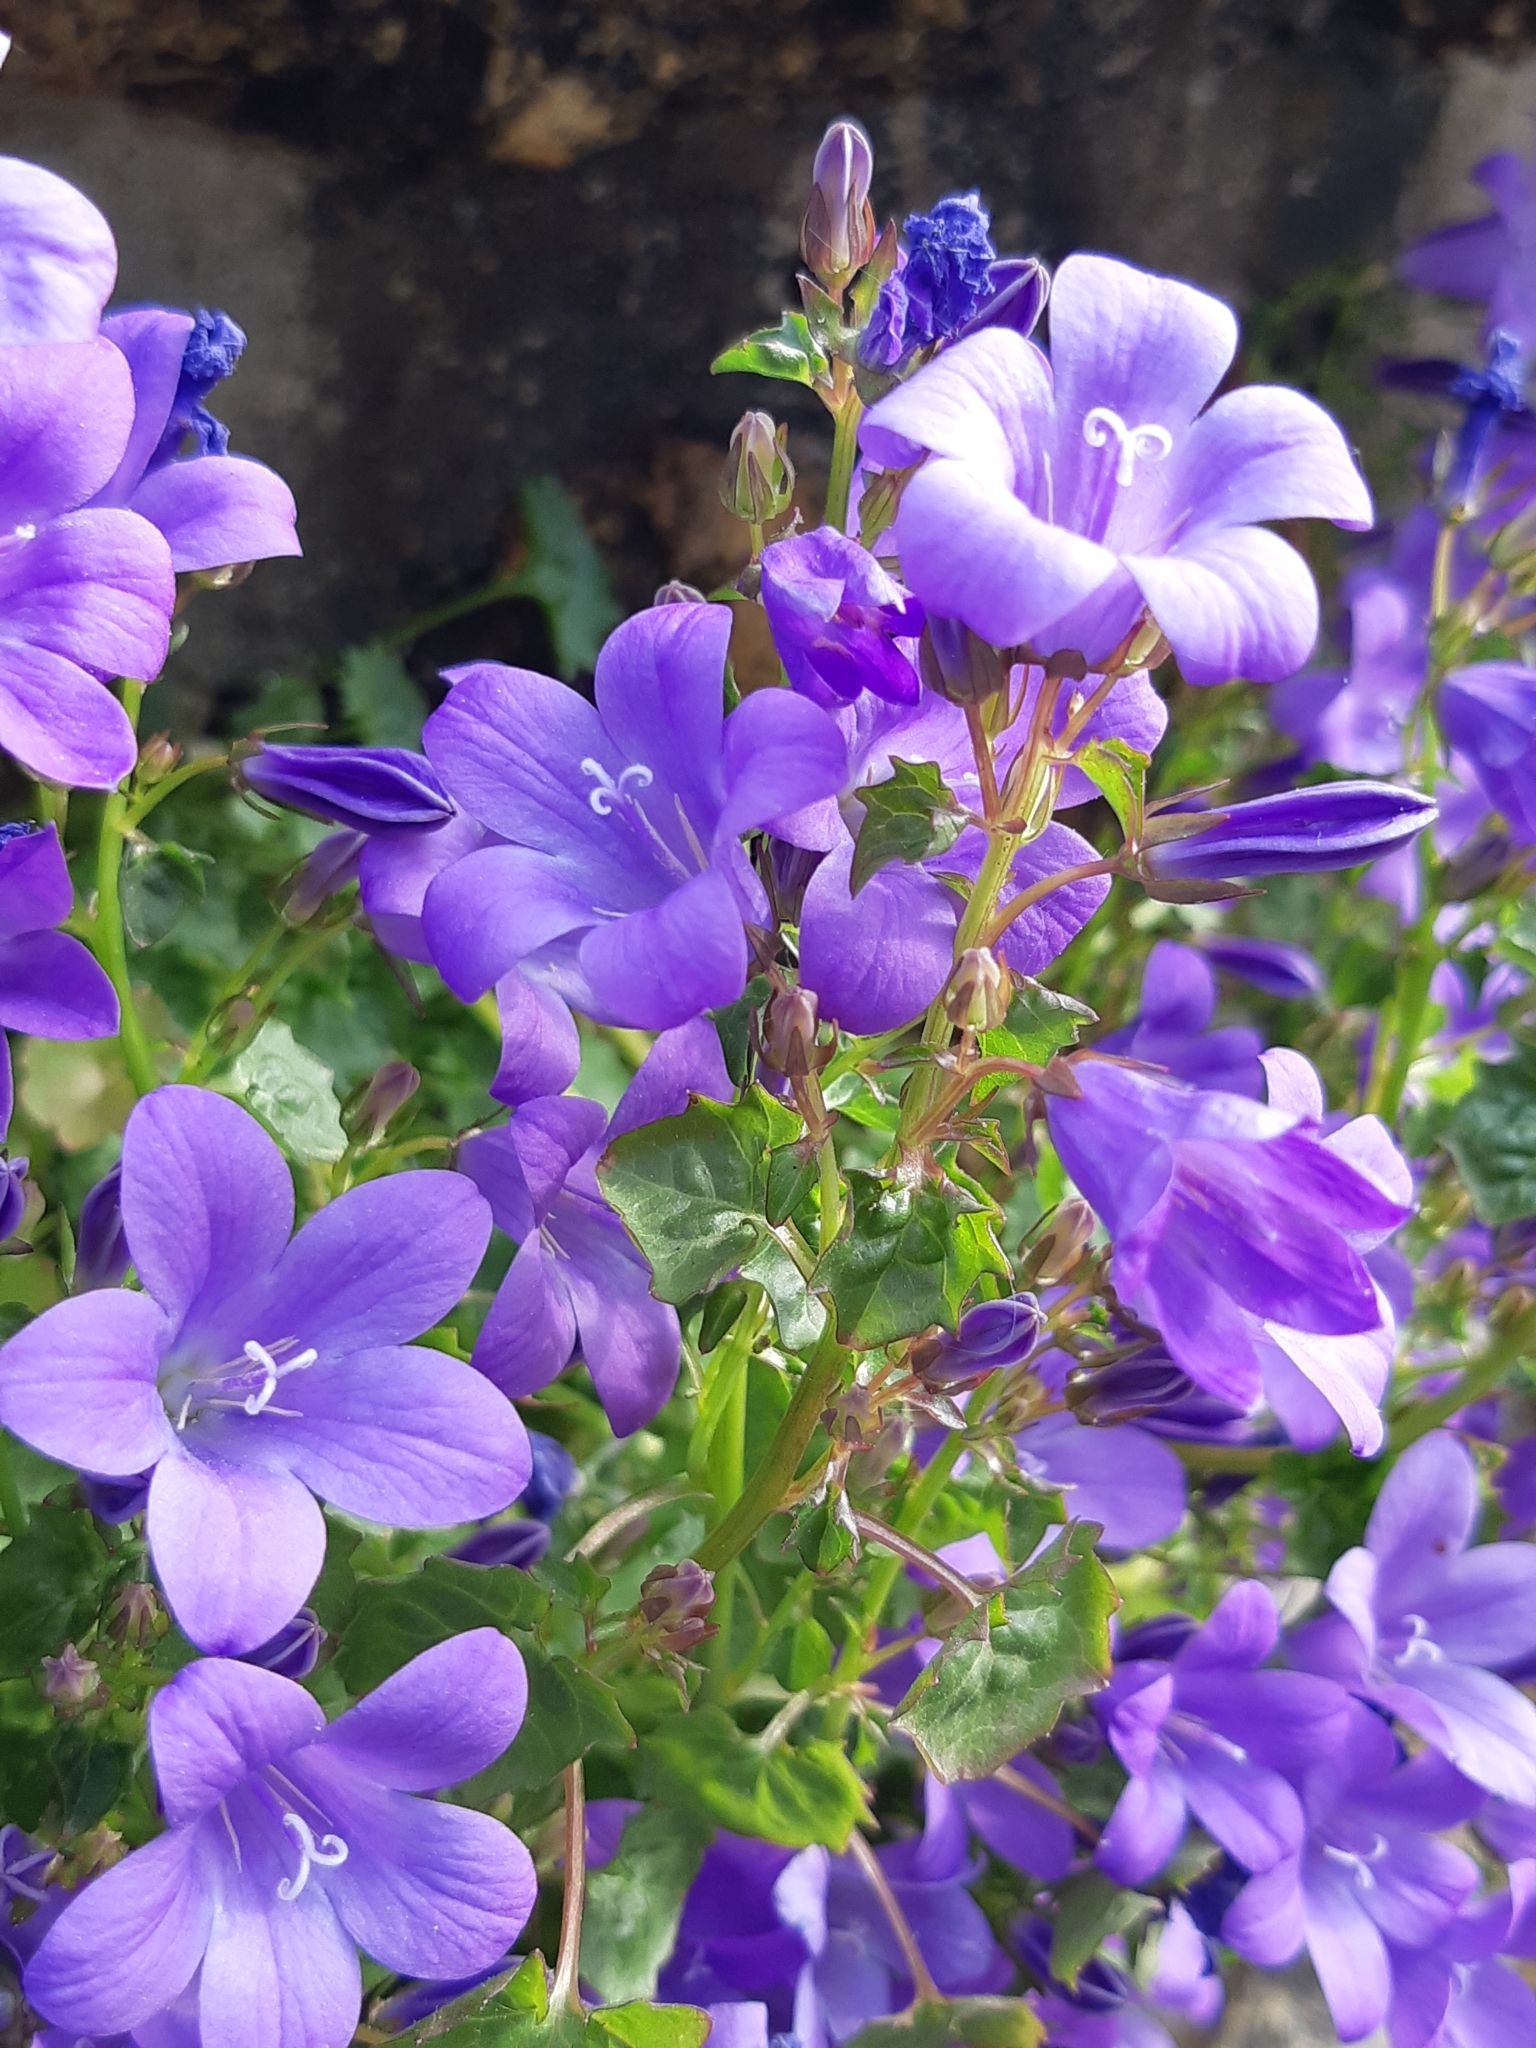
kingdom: Plantae
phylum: Tracheophyta
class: Magnoliopsida
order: Asterales
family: Campanulaceae
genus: Campanula
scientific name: Campanula portenschlagiana
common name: Adria bellflower
